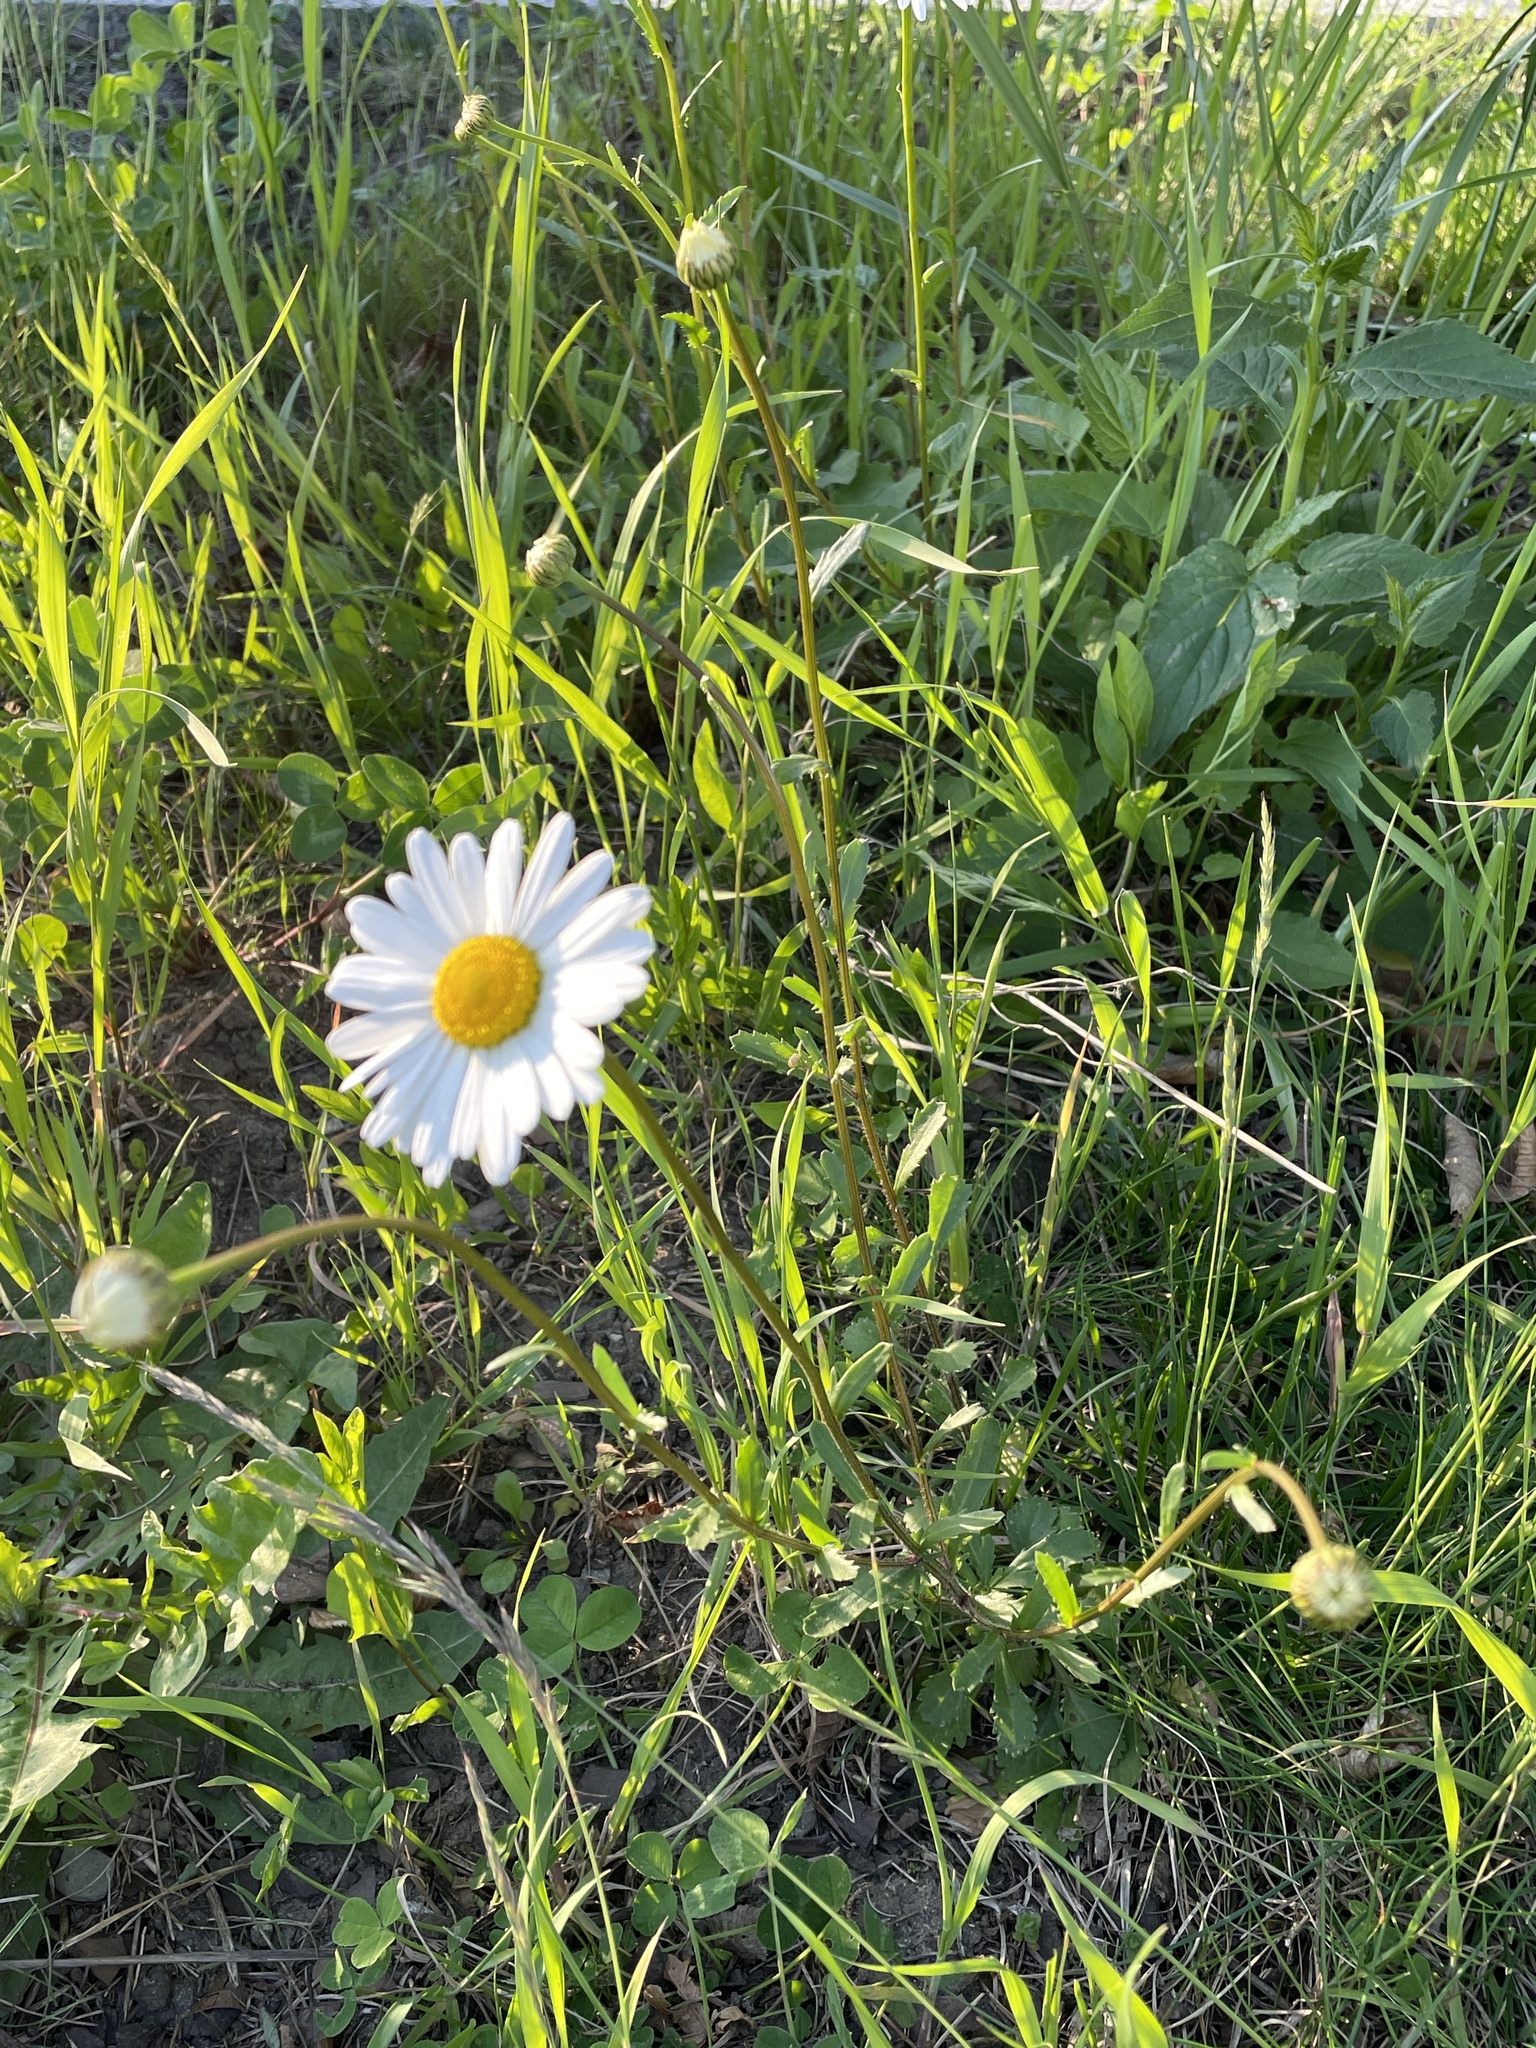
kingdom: Plantae
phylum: Tracheophyta
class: Magnoliopsida
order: Asterales
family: Asteraceae
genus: Leucanthemum
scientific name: Leucanthemum vulgare
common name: Oxeye daisy
